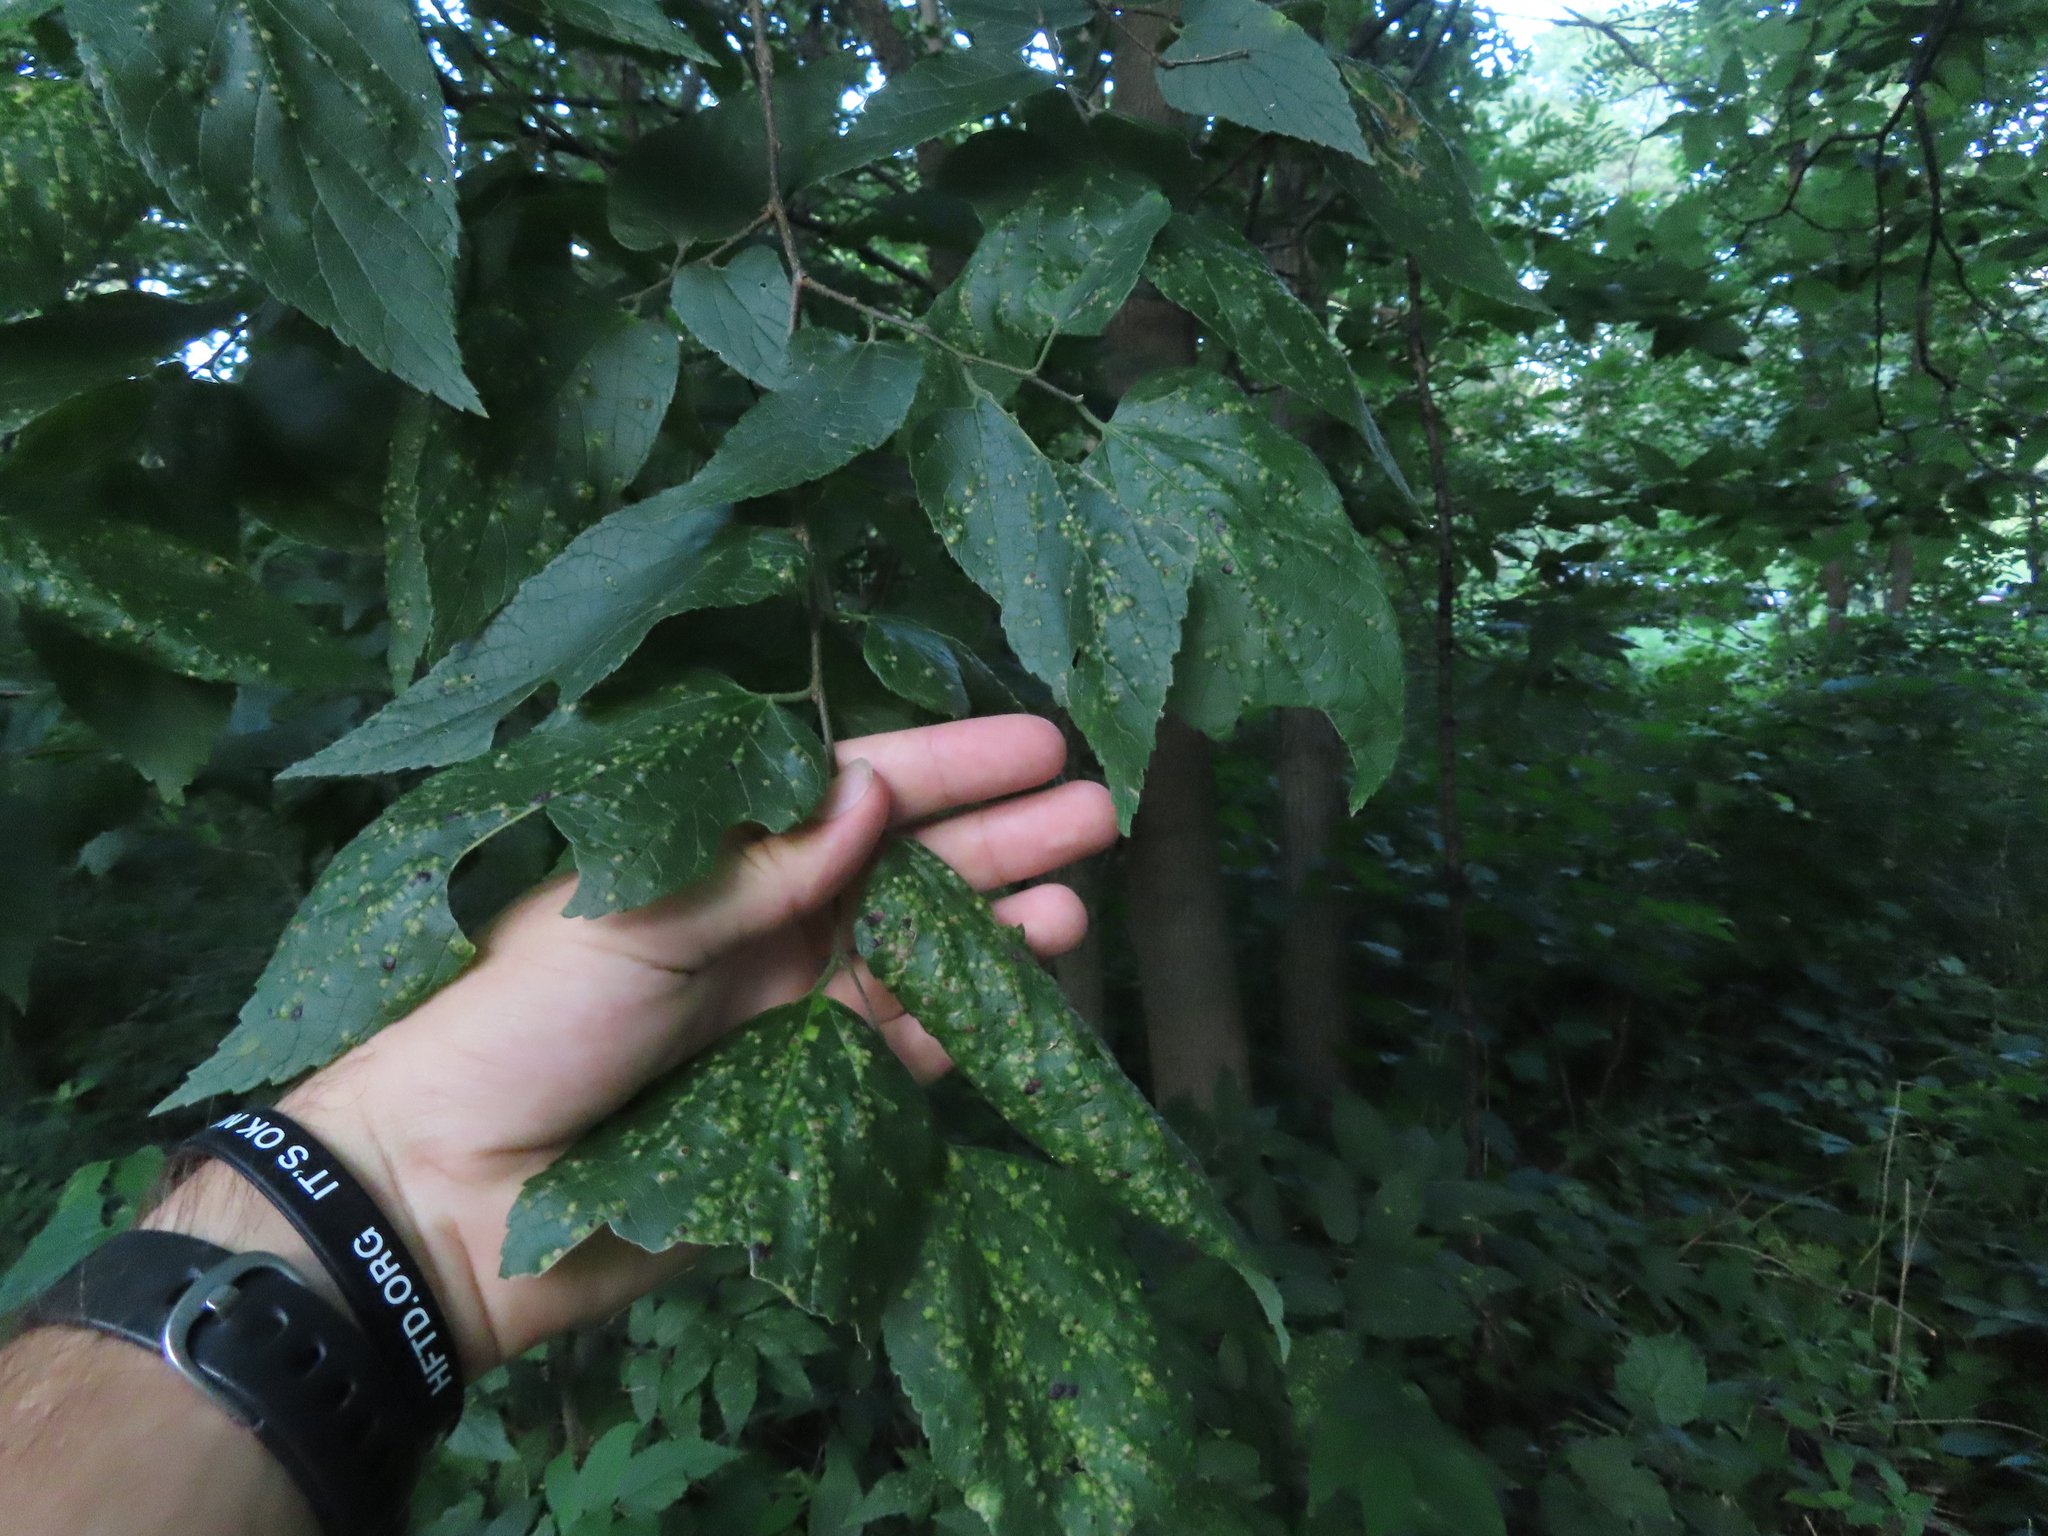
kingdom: Plantae
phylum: Tracheophyta
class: Magnoliopsida
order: Rosales
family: Cannabaceae
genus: Celtis
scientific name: Celtis occidentalis
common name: Common hackberry
